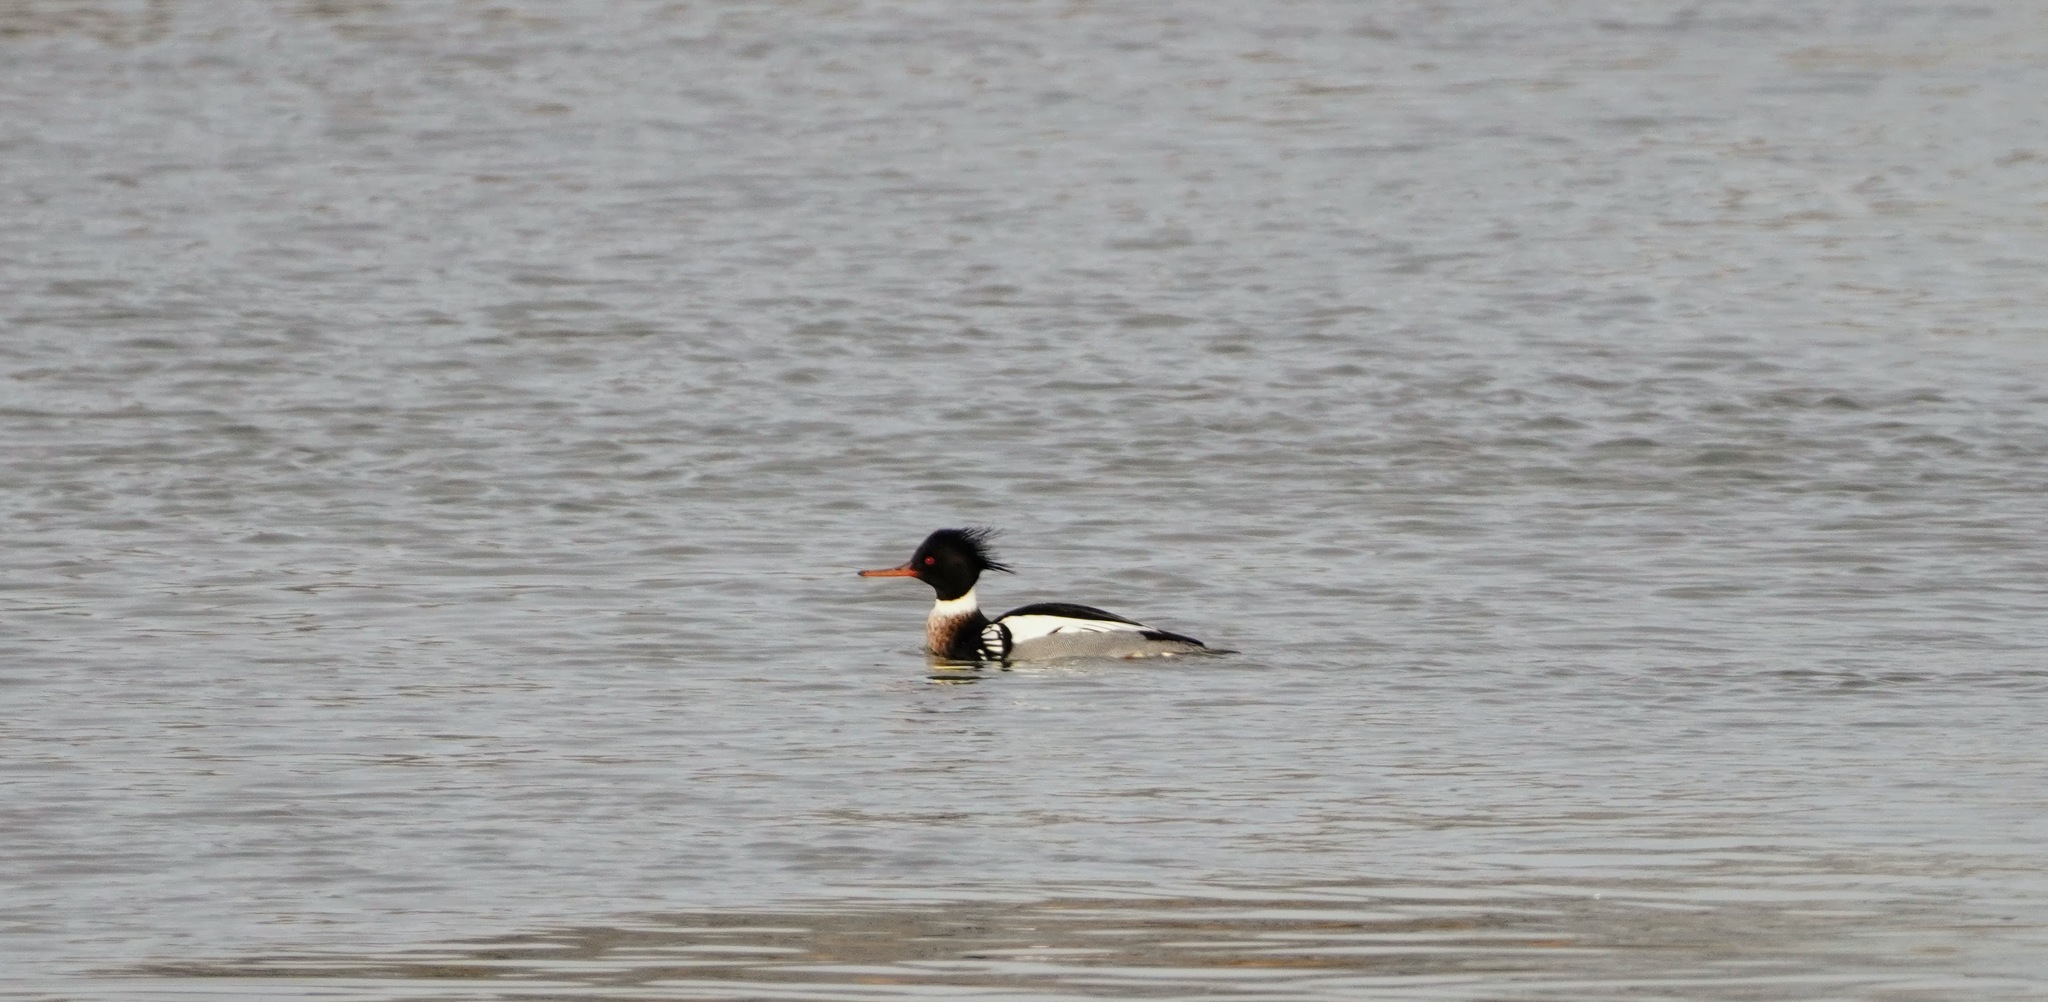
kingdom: Animalia
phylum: Chordata
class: Aves
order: Anseriformes
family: Anatidae
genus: Mergus
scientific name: Mergus serrator
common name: Red-breasted merganser
